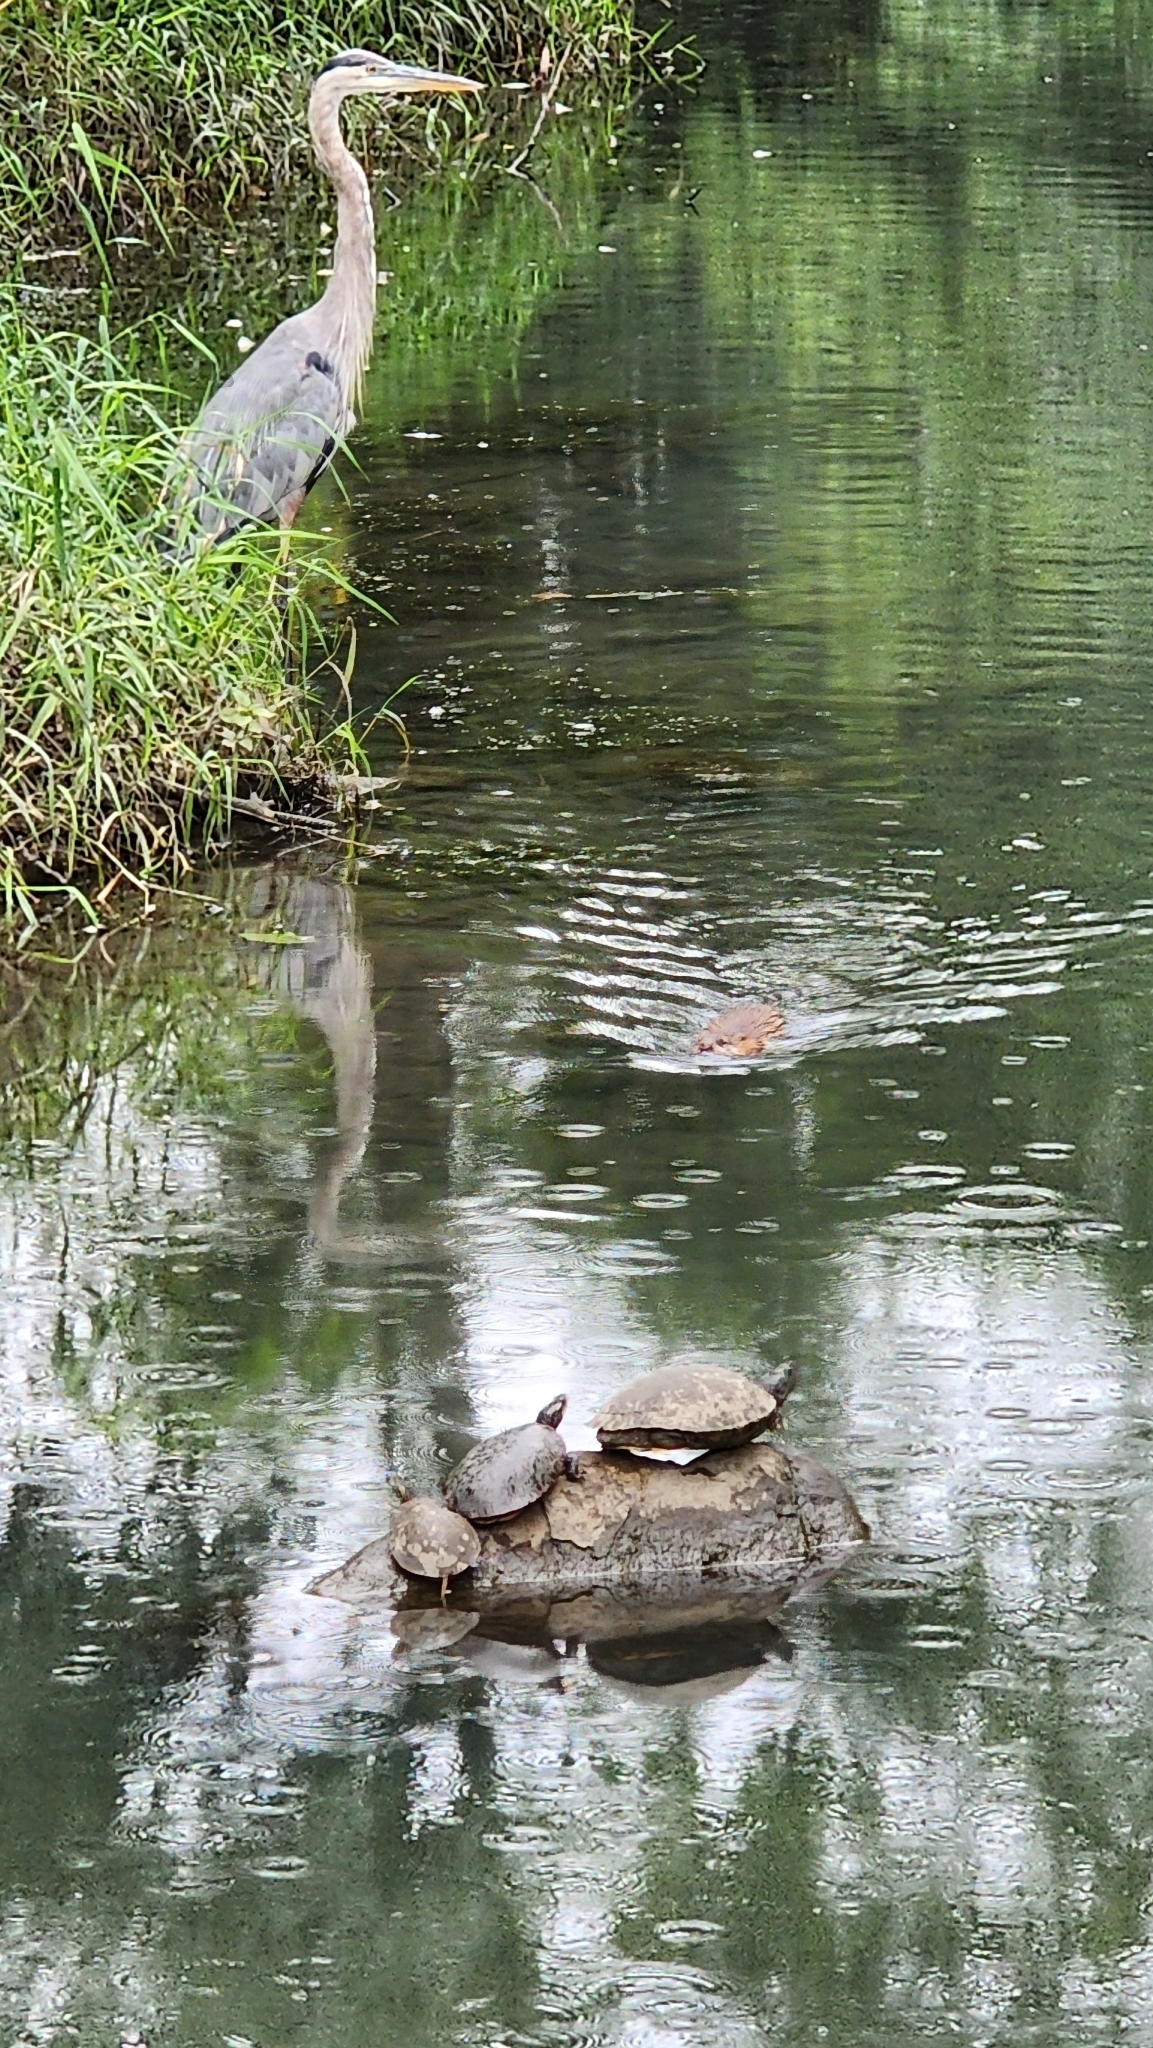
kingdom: Animalia
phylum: Chordata
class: Mammalia
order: Rodentia
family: Cricetidae
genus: Ondatra
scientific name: Ondatra zibethicus
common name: Muskrat
